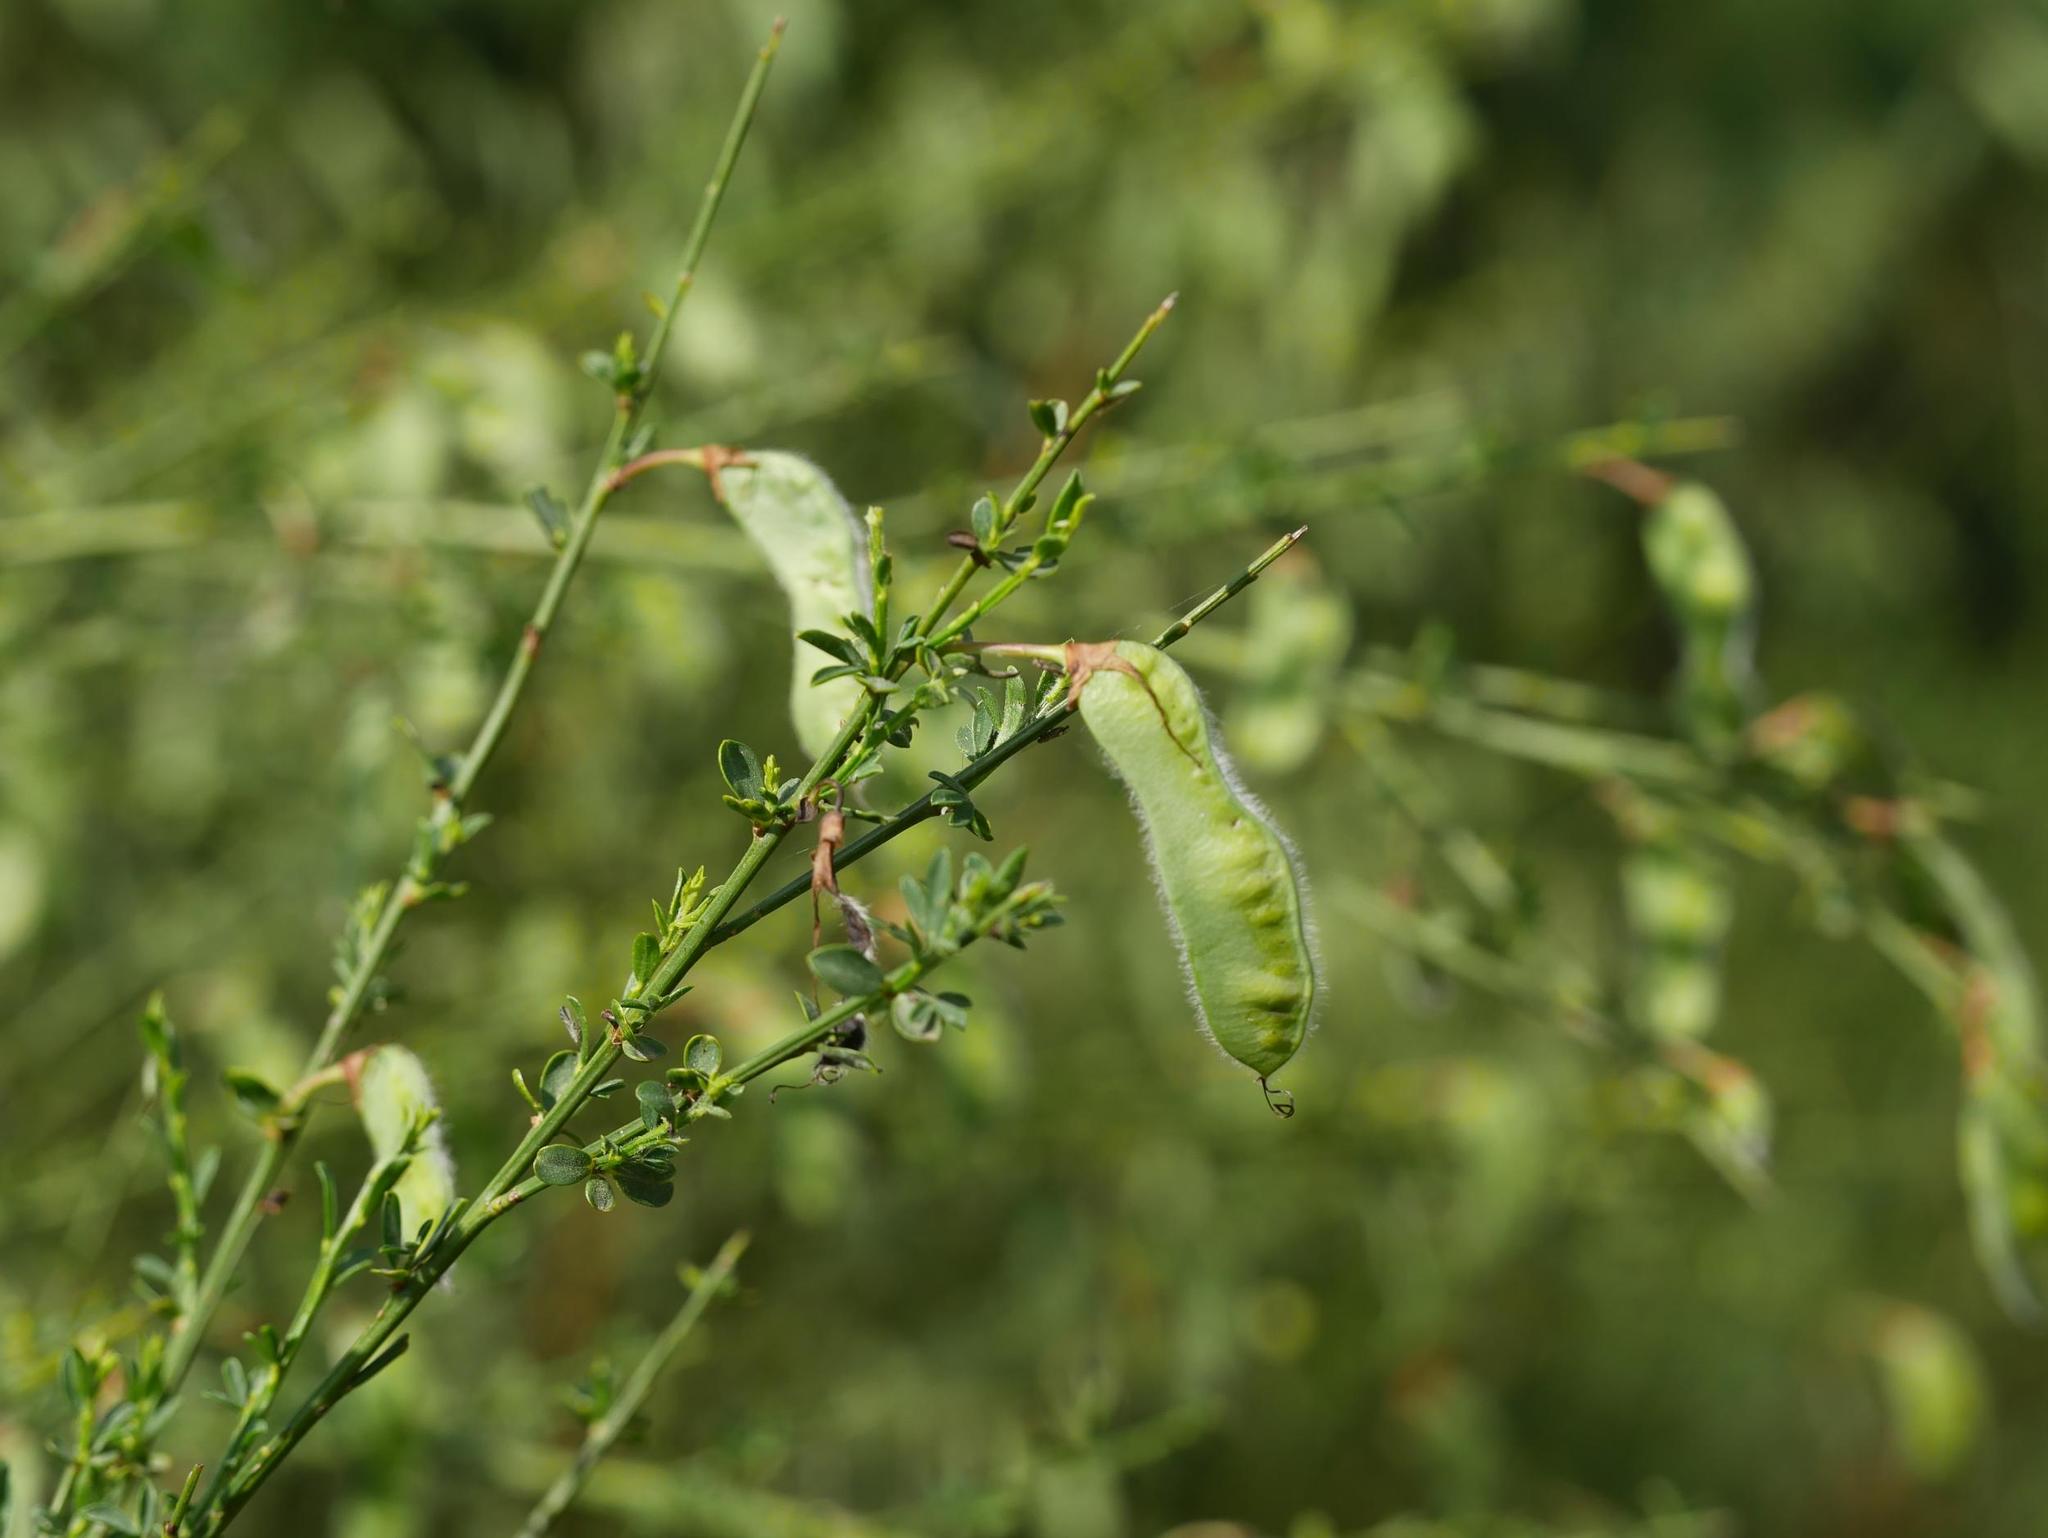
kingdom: Plantae
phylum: Tracheophyta
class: Magnoliopsida
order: Fabales
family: Fabaceae
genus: Cytisus
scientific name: Cytisus scoparius
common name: Scotch broom
